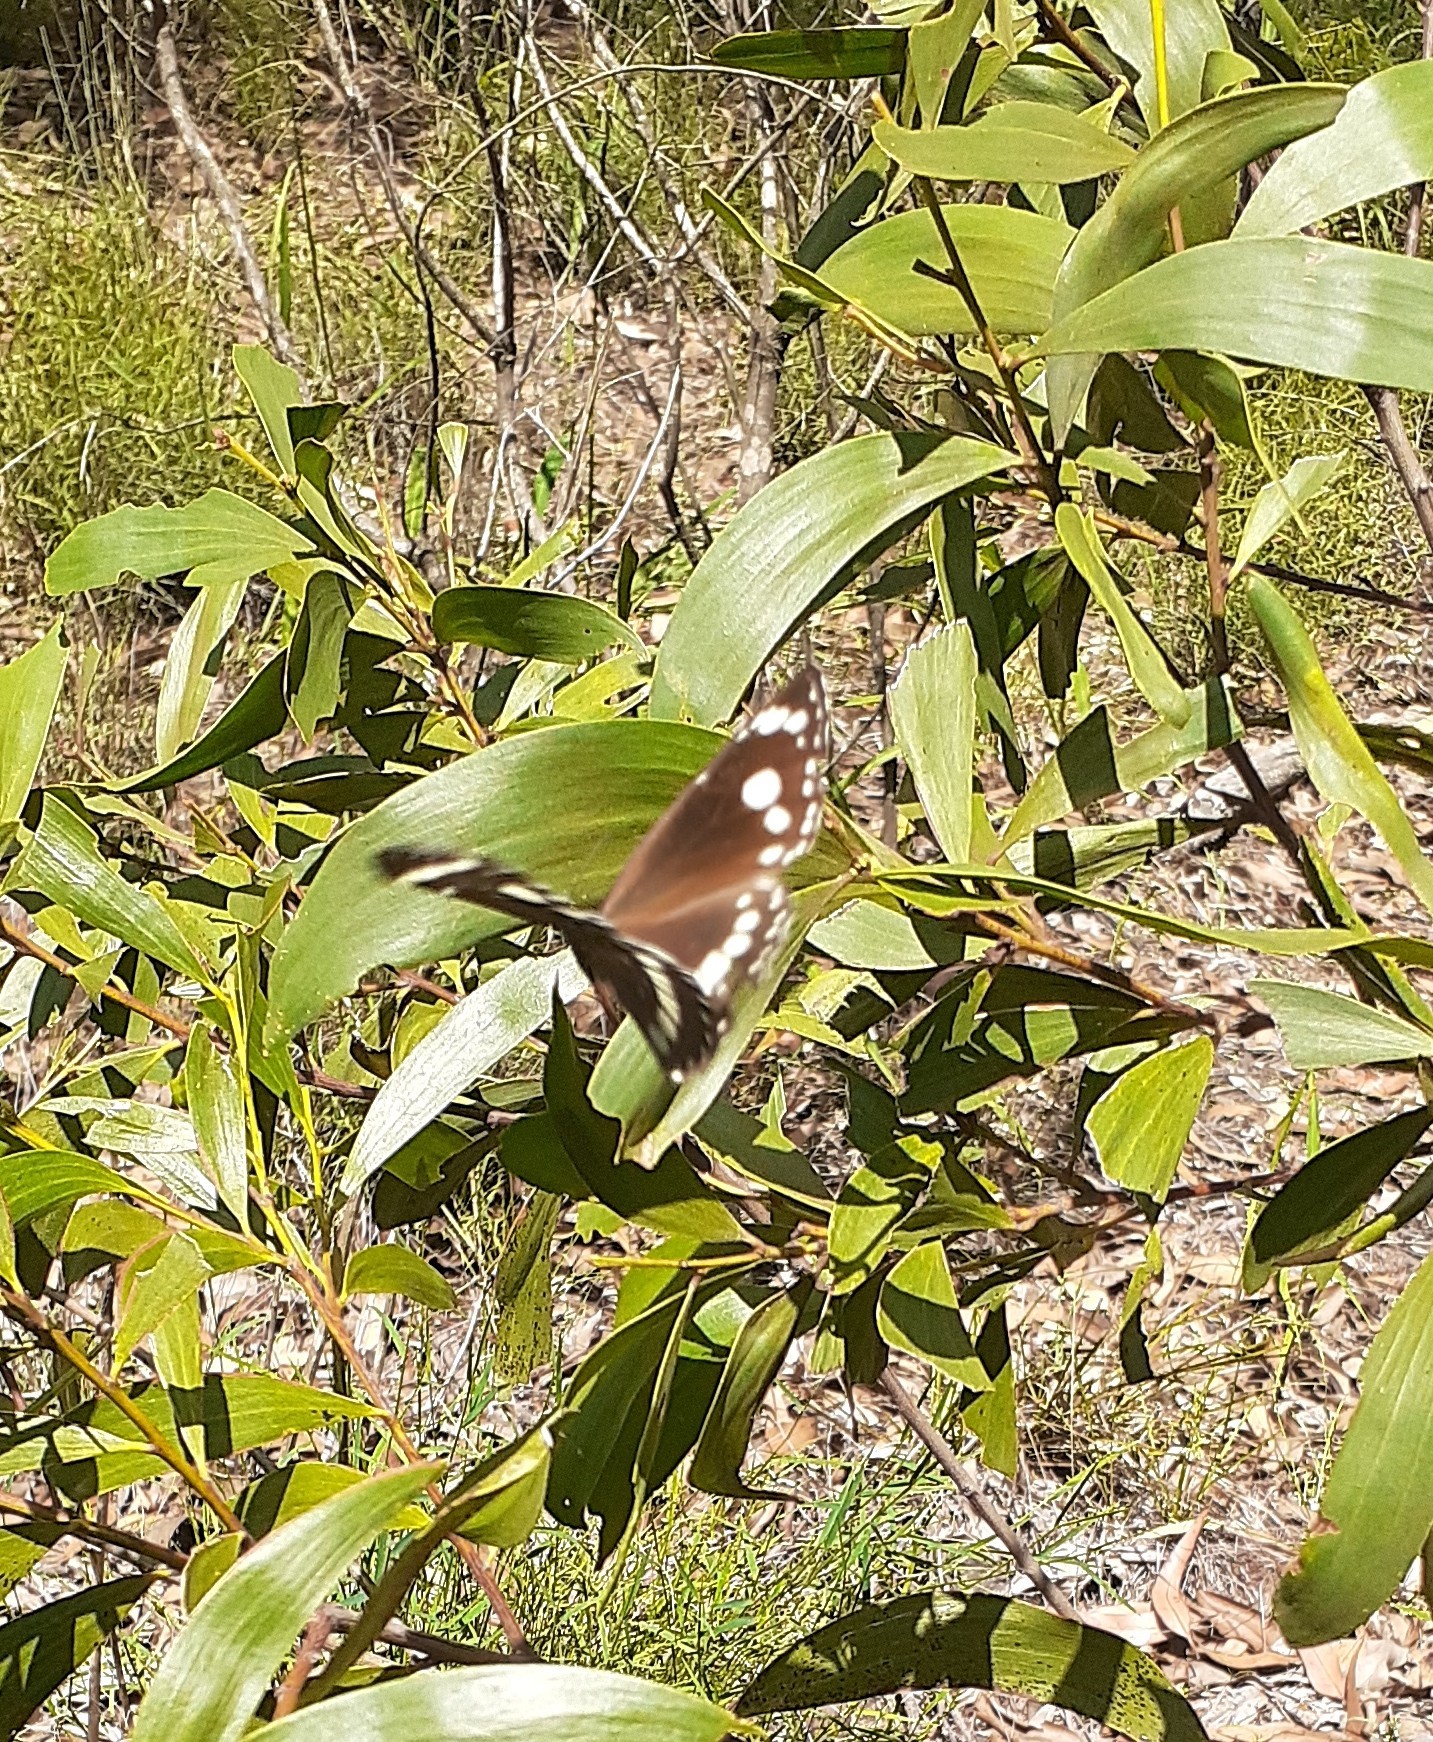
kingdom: Animalia
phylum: Arthropoda
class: Insecta
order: Lepidoptera
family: Nymphalidae
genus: Euploea
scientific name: Euploea core
